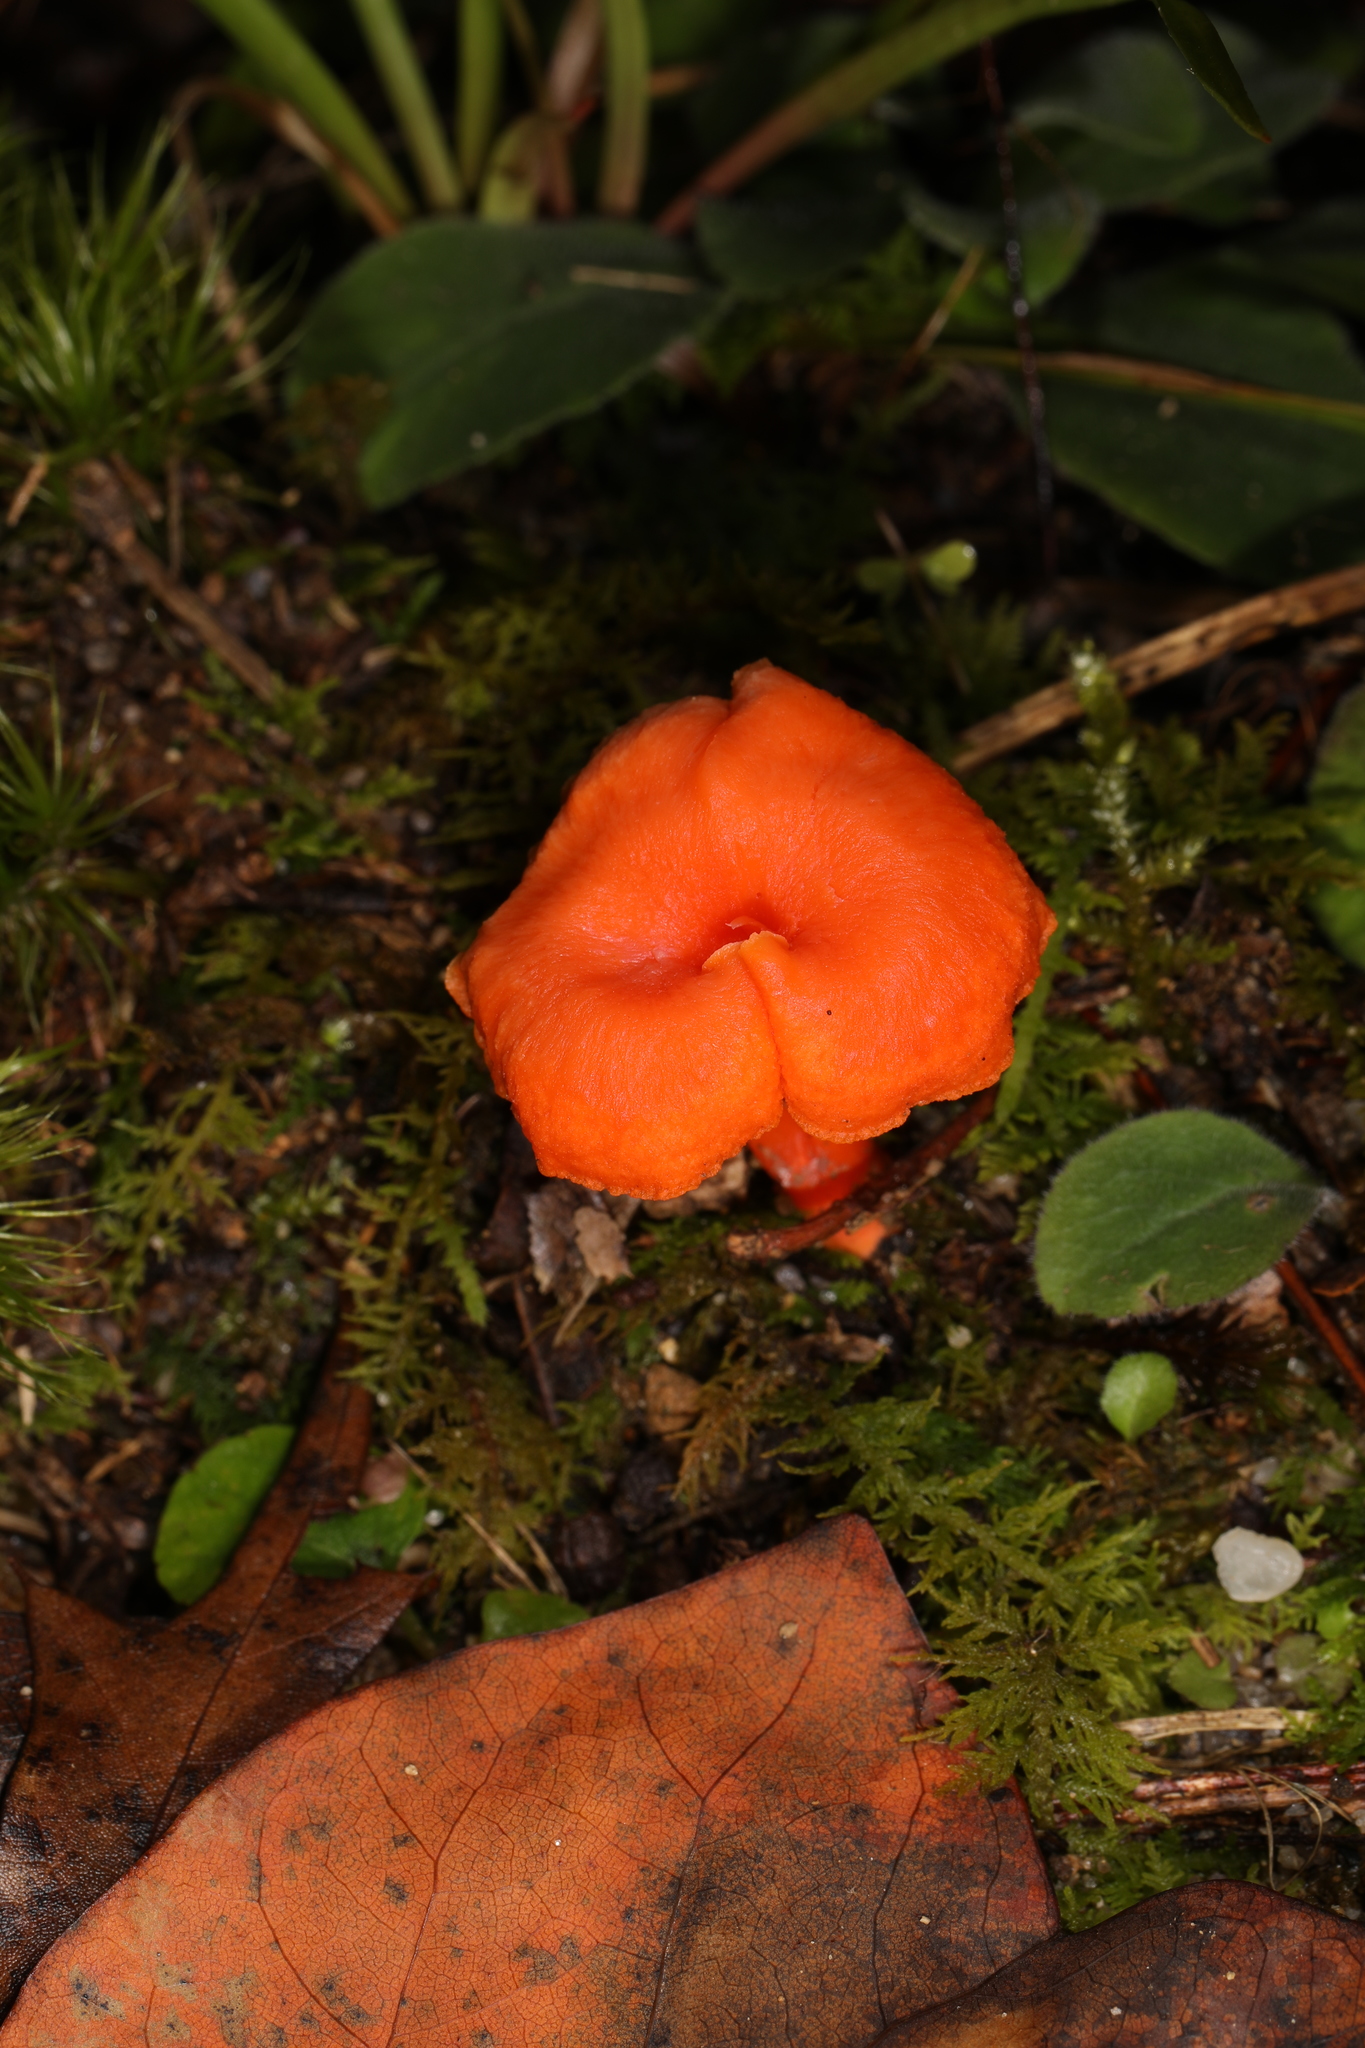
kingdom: Fungi
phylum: Basidiomycota
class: Agaricomycetes
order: Cantharellales
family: Hydnaceae
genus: Cantharellus
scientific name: Cantharellus cinnabarinus
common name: Cinnabar chanterelle
